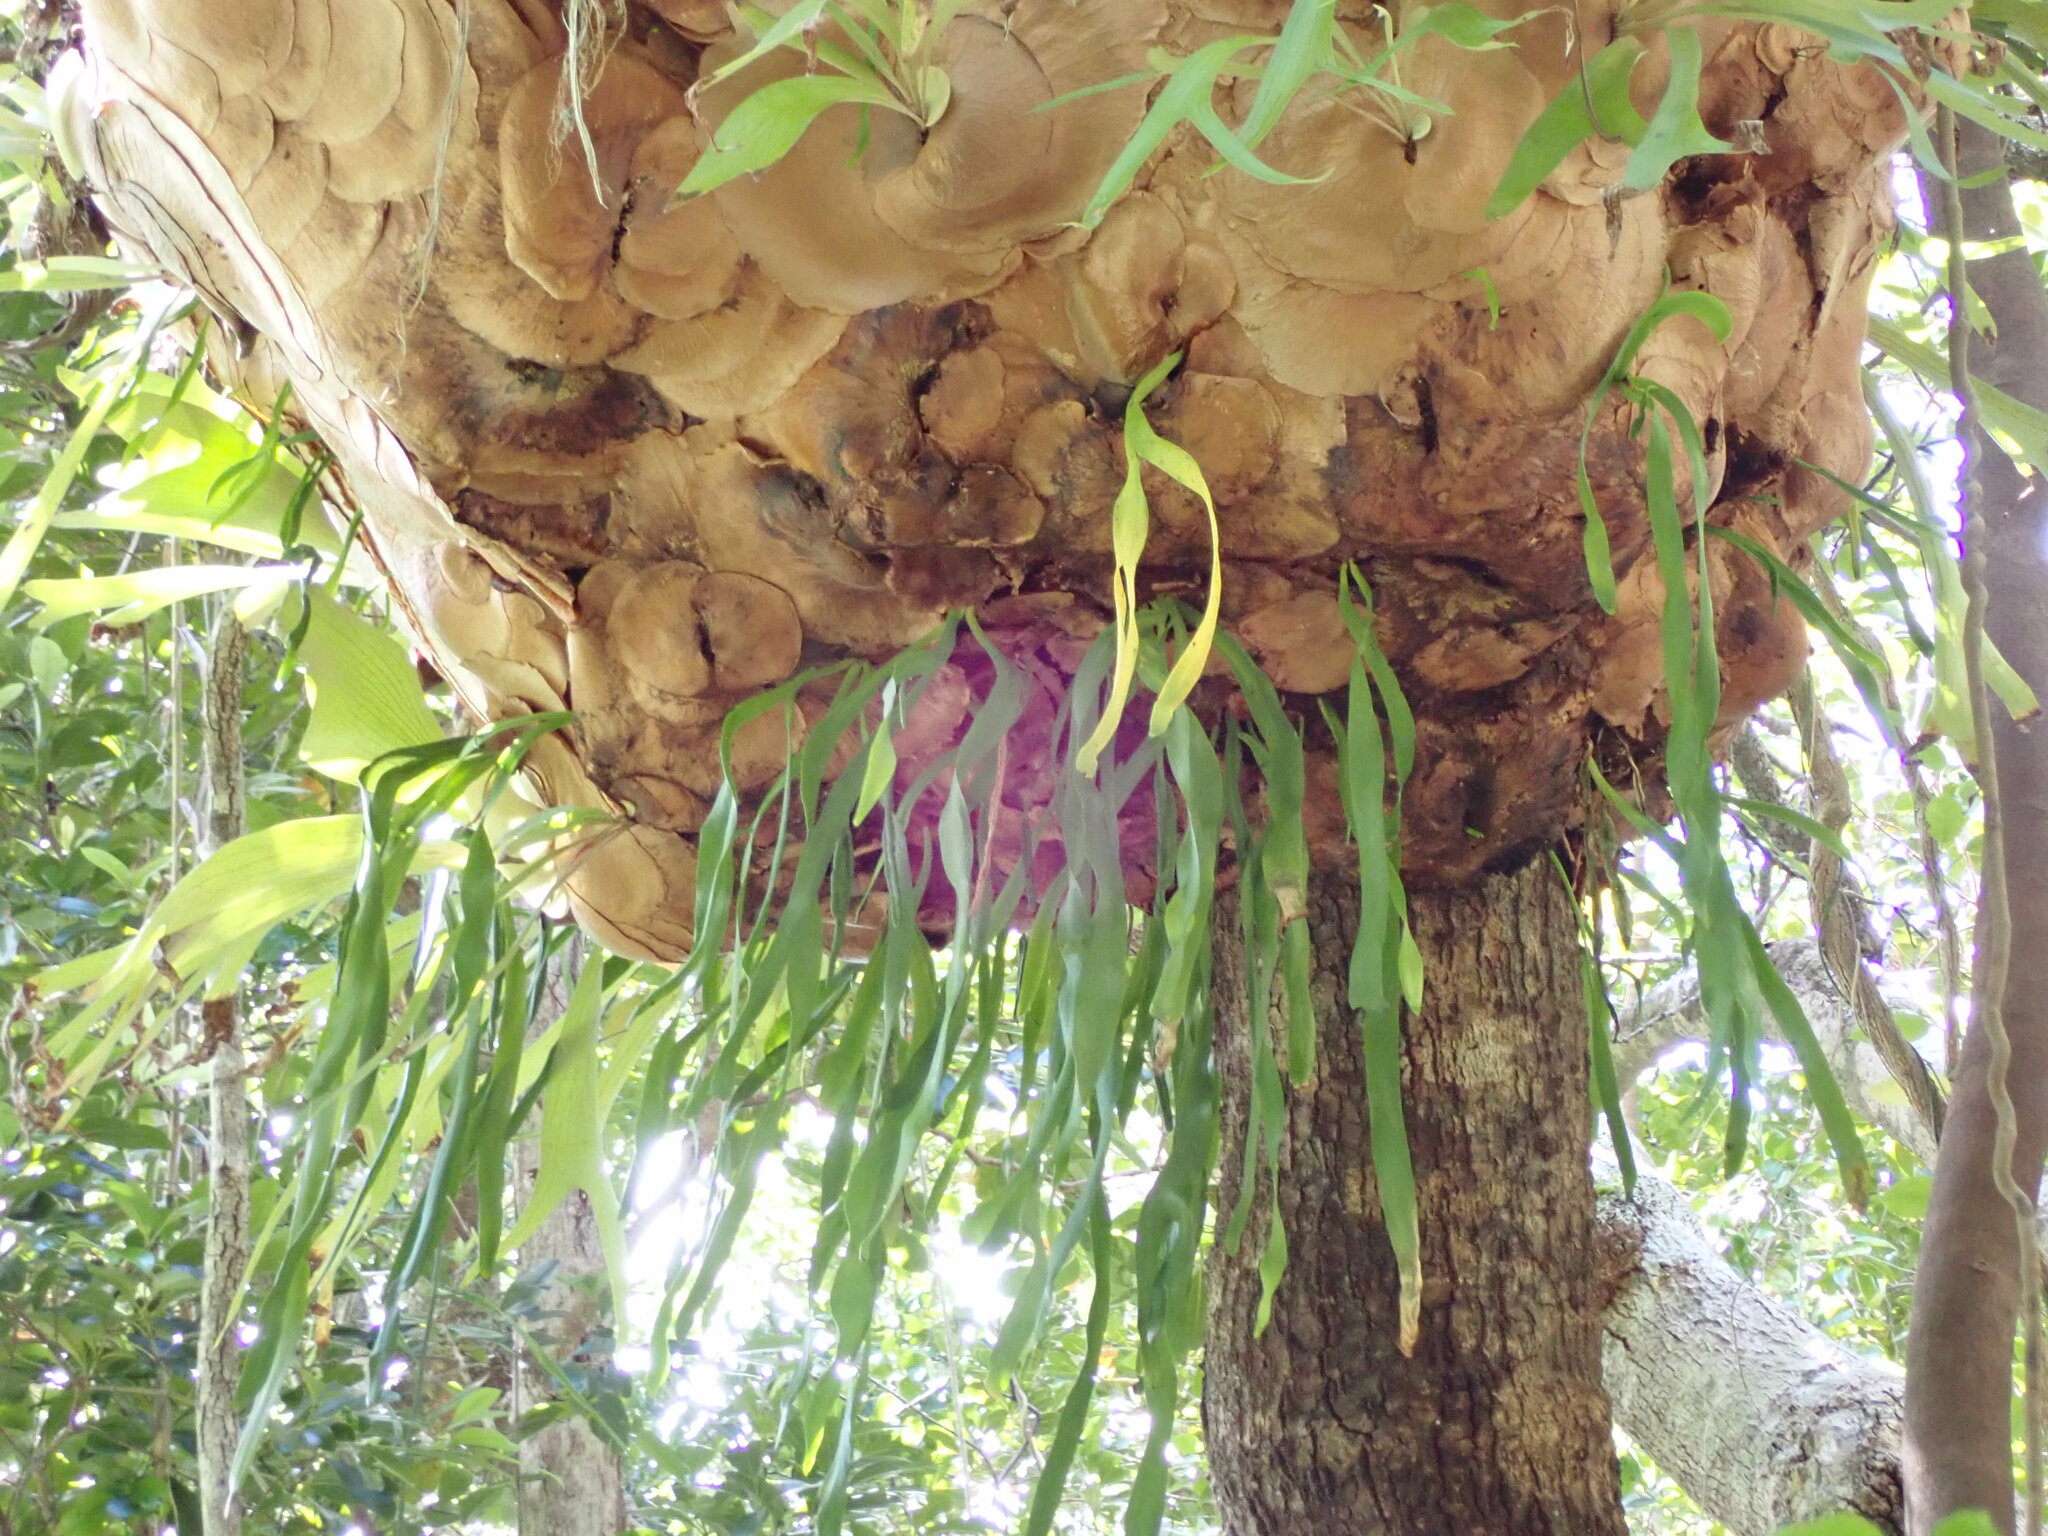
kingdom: Plantae
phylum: Tracheophyta
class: Polypodiopsida
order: Ophioglossales
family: Ophioglossaceae
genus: Ophioglossum
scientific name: Ophioglossum reticulatum
